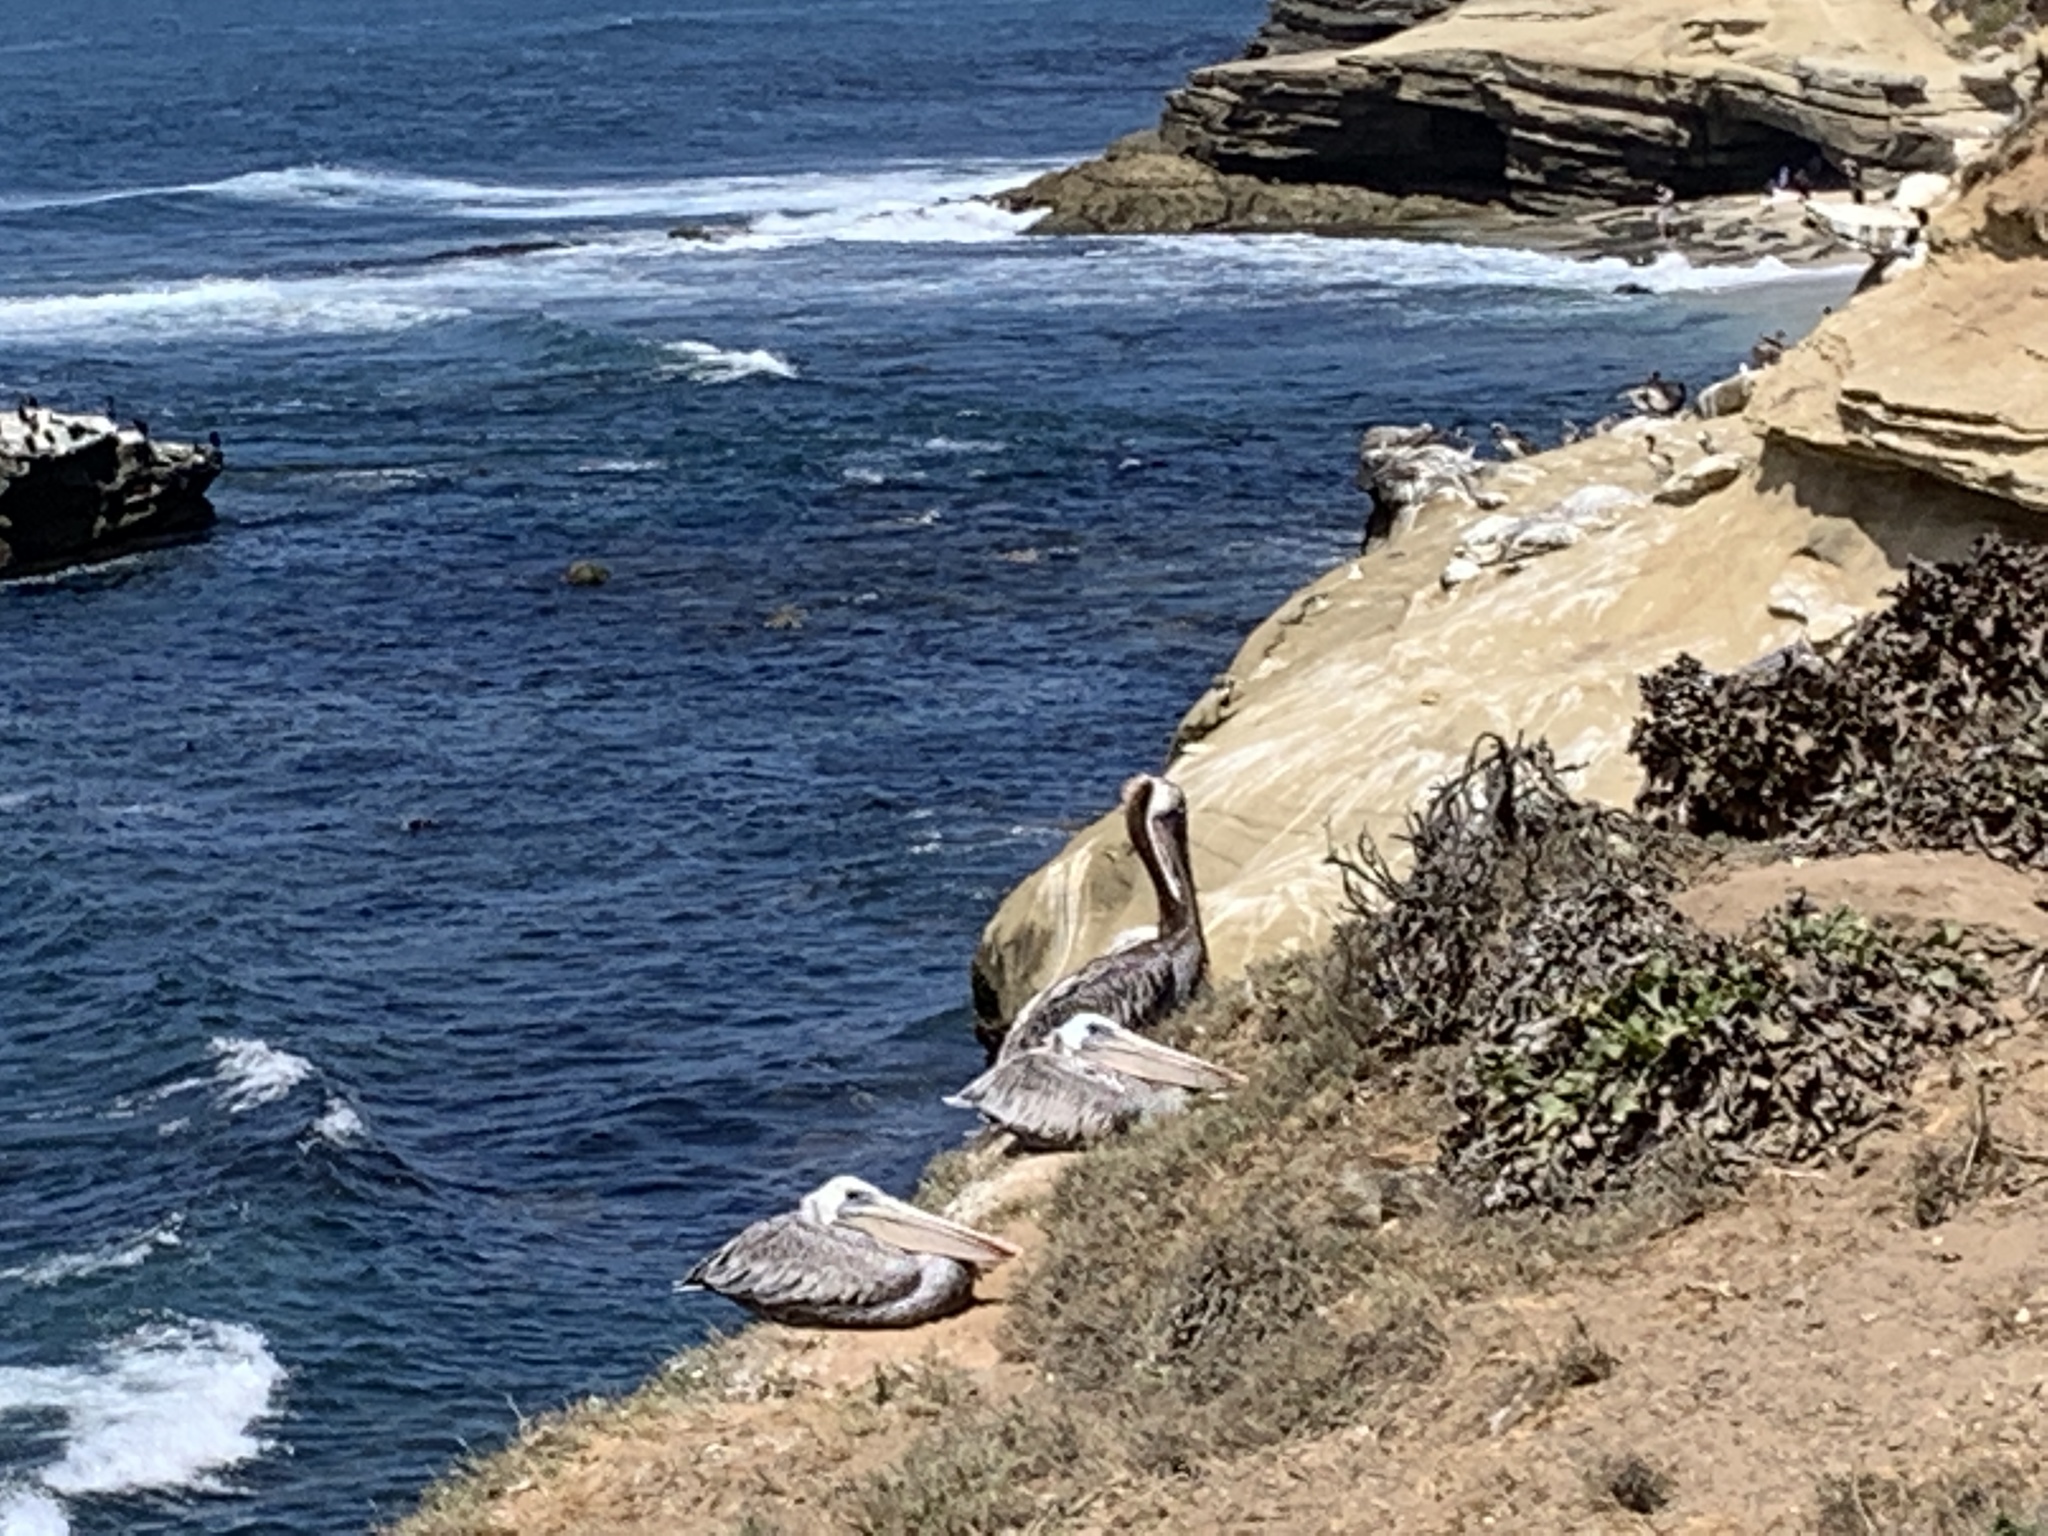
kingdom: Animalia
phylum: Chordata
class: Aves
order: Pelecaniformes
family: Pelecanidae
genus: Pelecanus
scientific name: Pelecanus occidentalis
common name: Brown pelican
